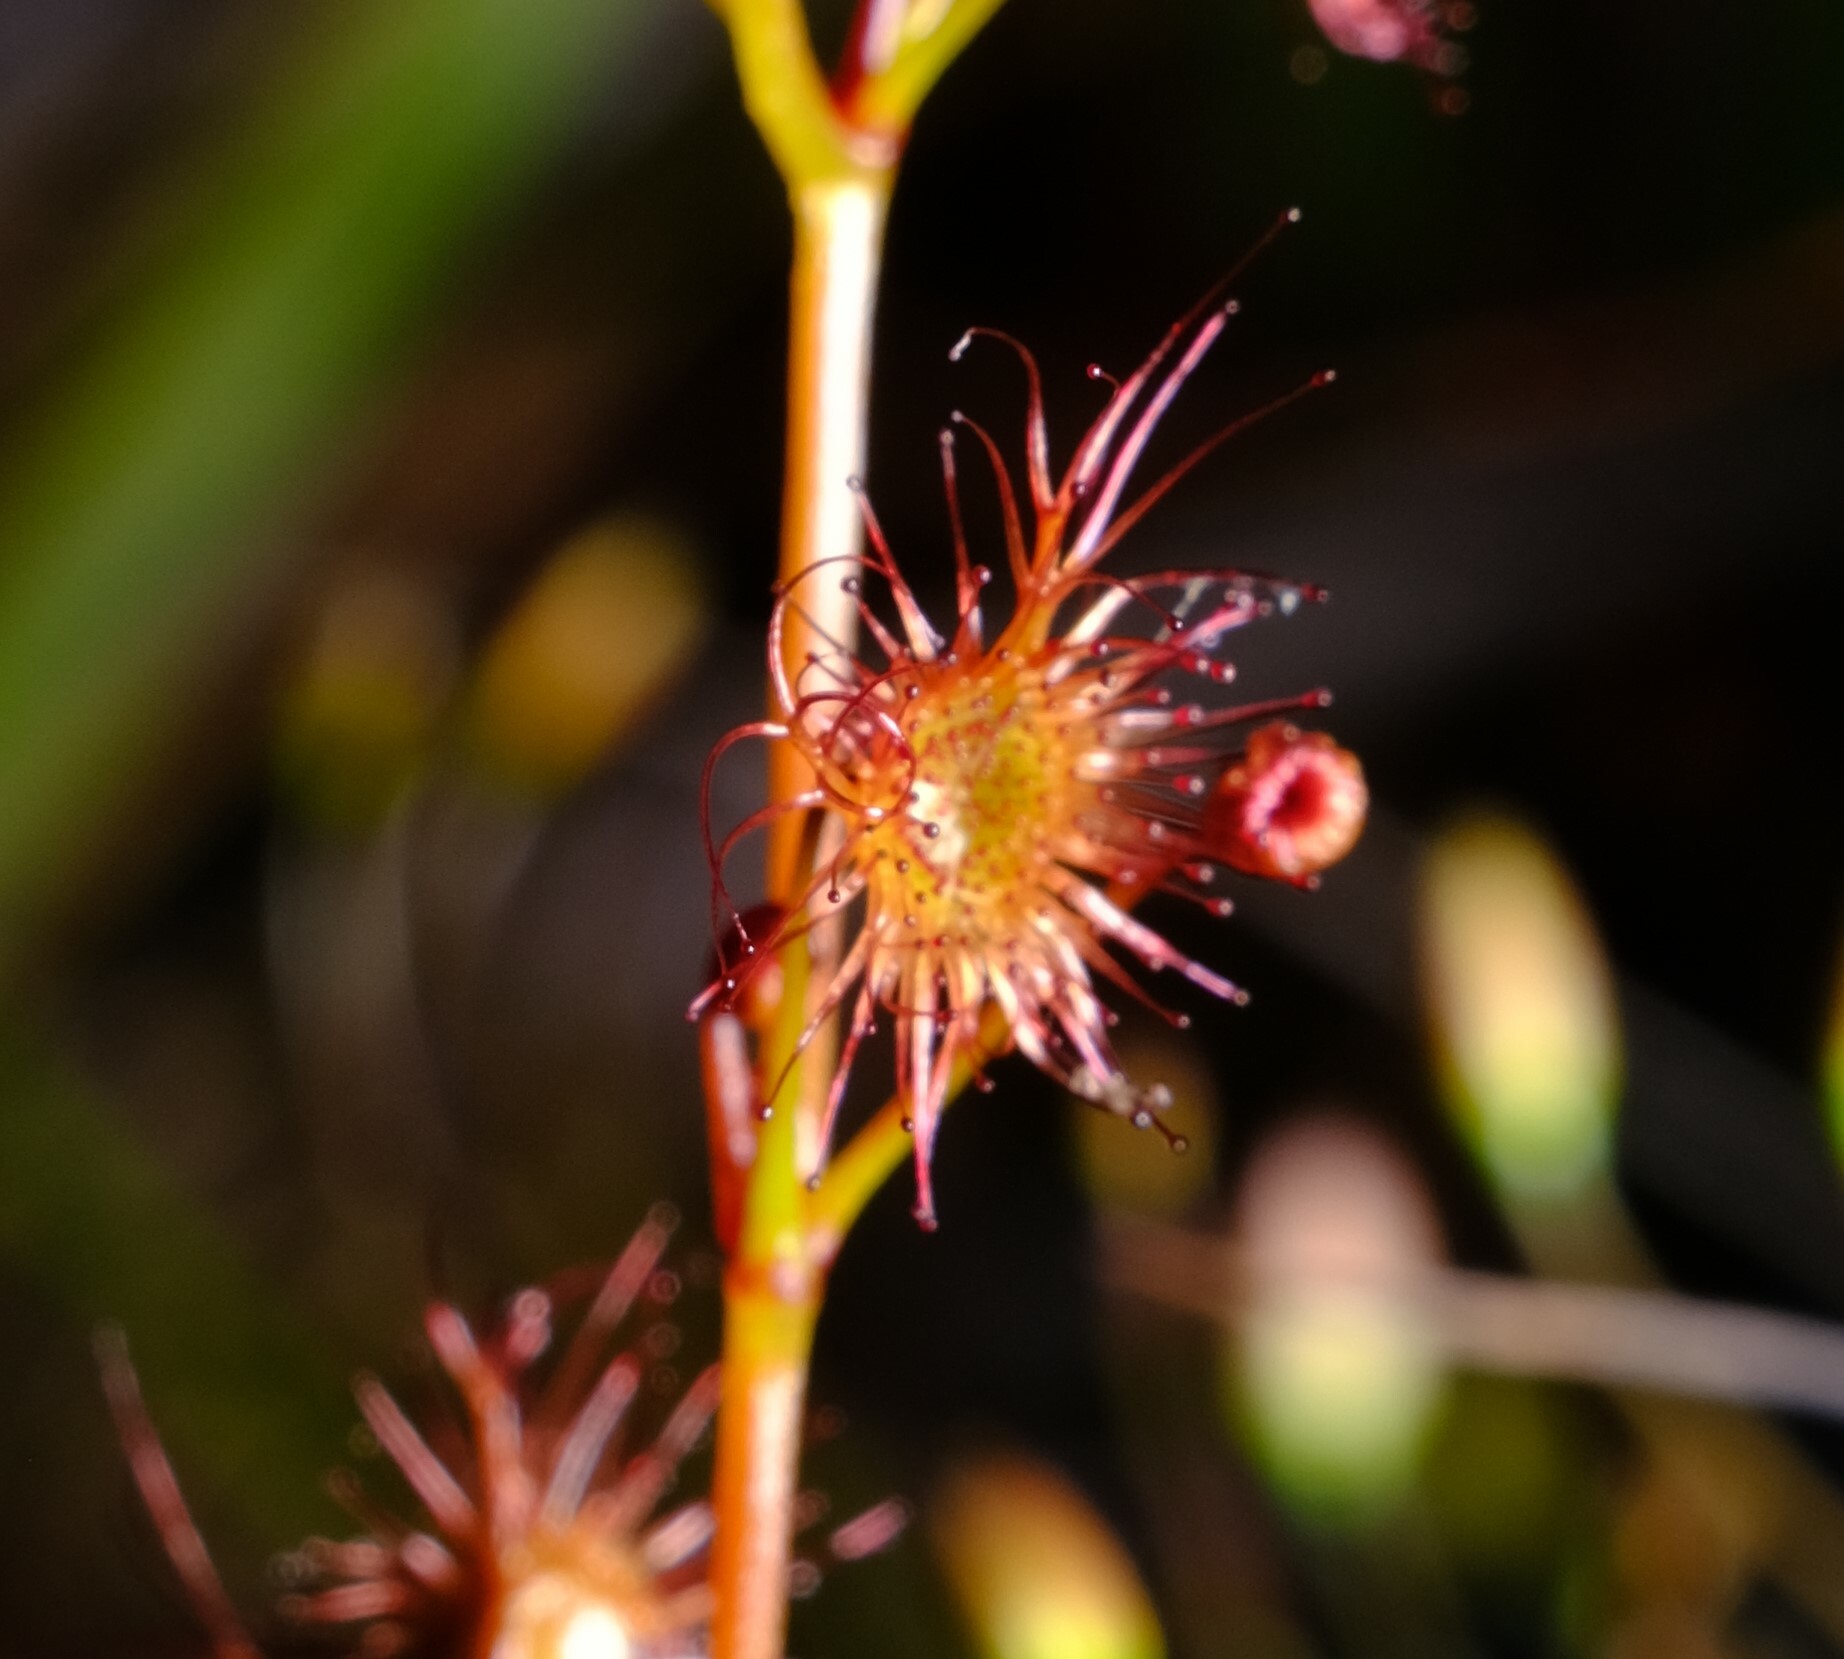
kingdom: Plantae
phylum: Tracheophyta
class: Magnoliopsida
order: Caryophyllales
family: Droseraceae
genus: Drosera
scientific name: Drosera peltata
